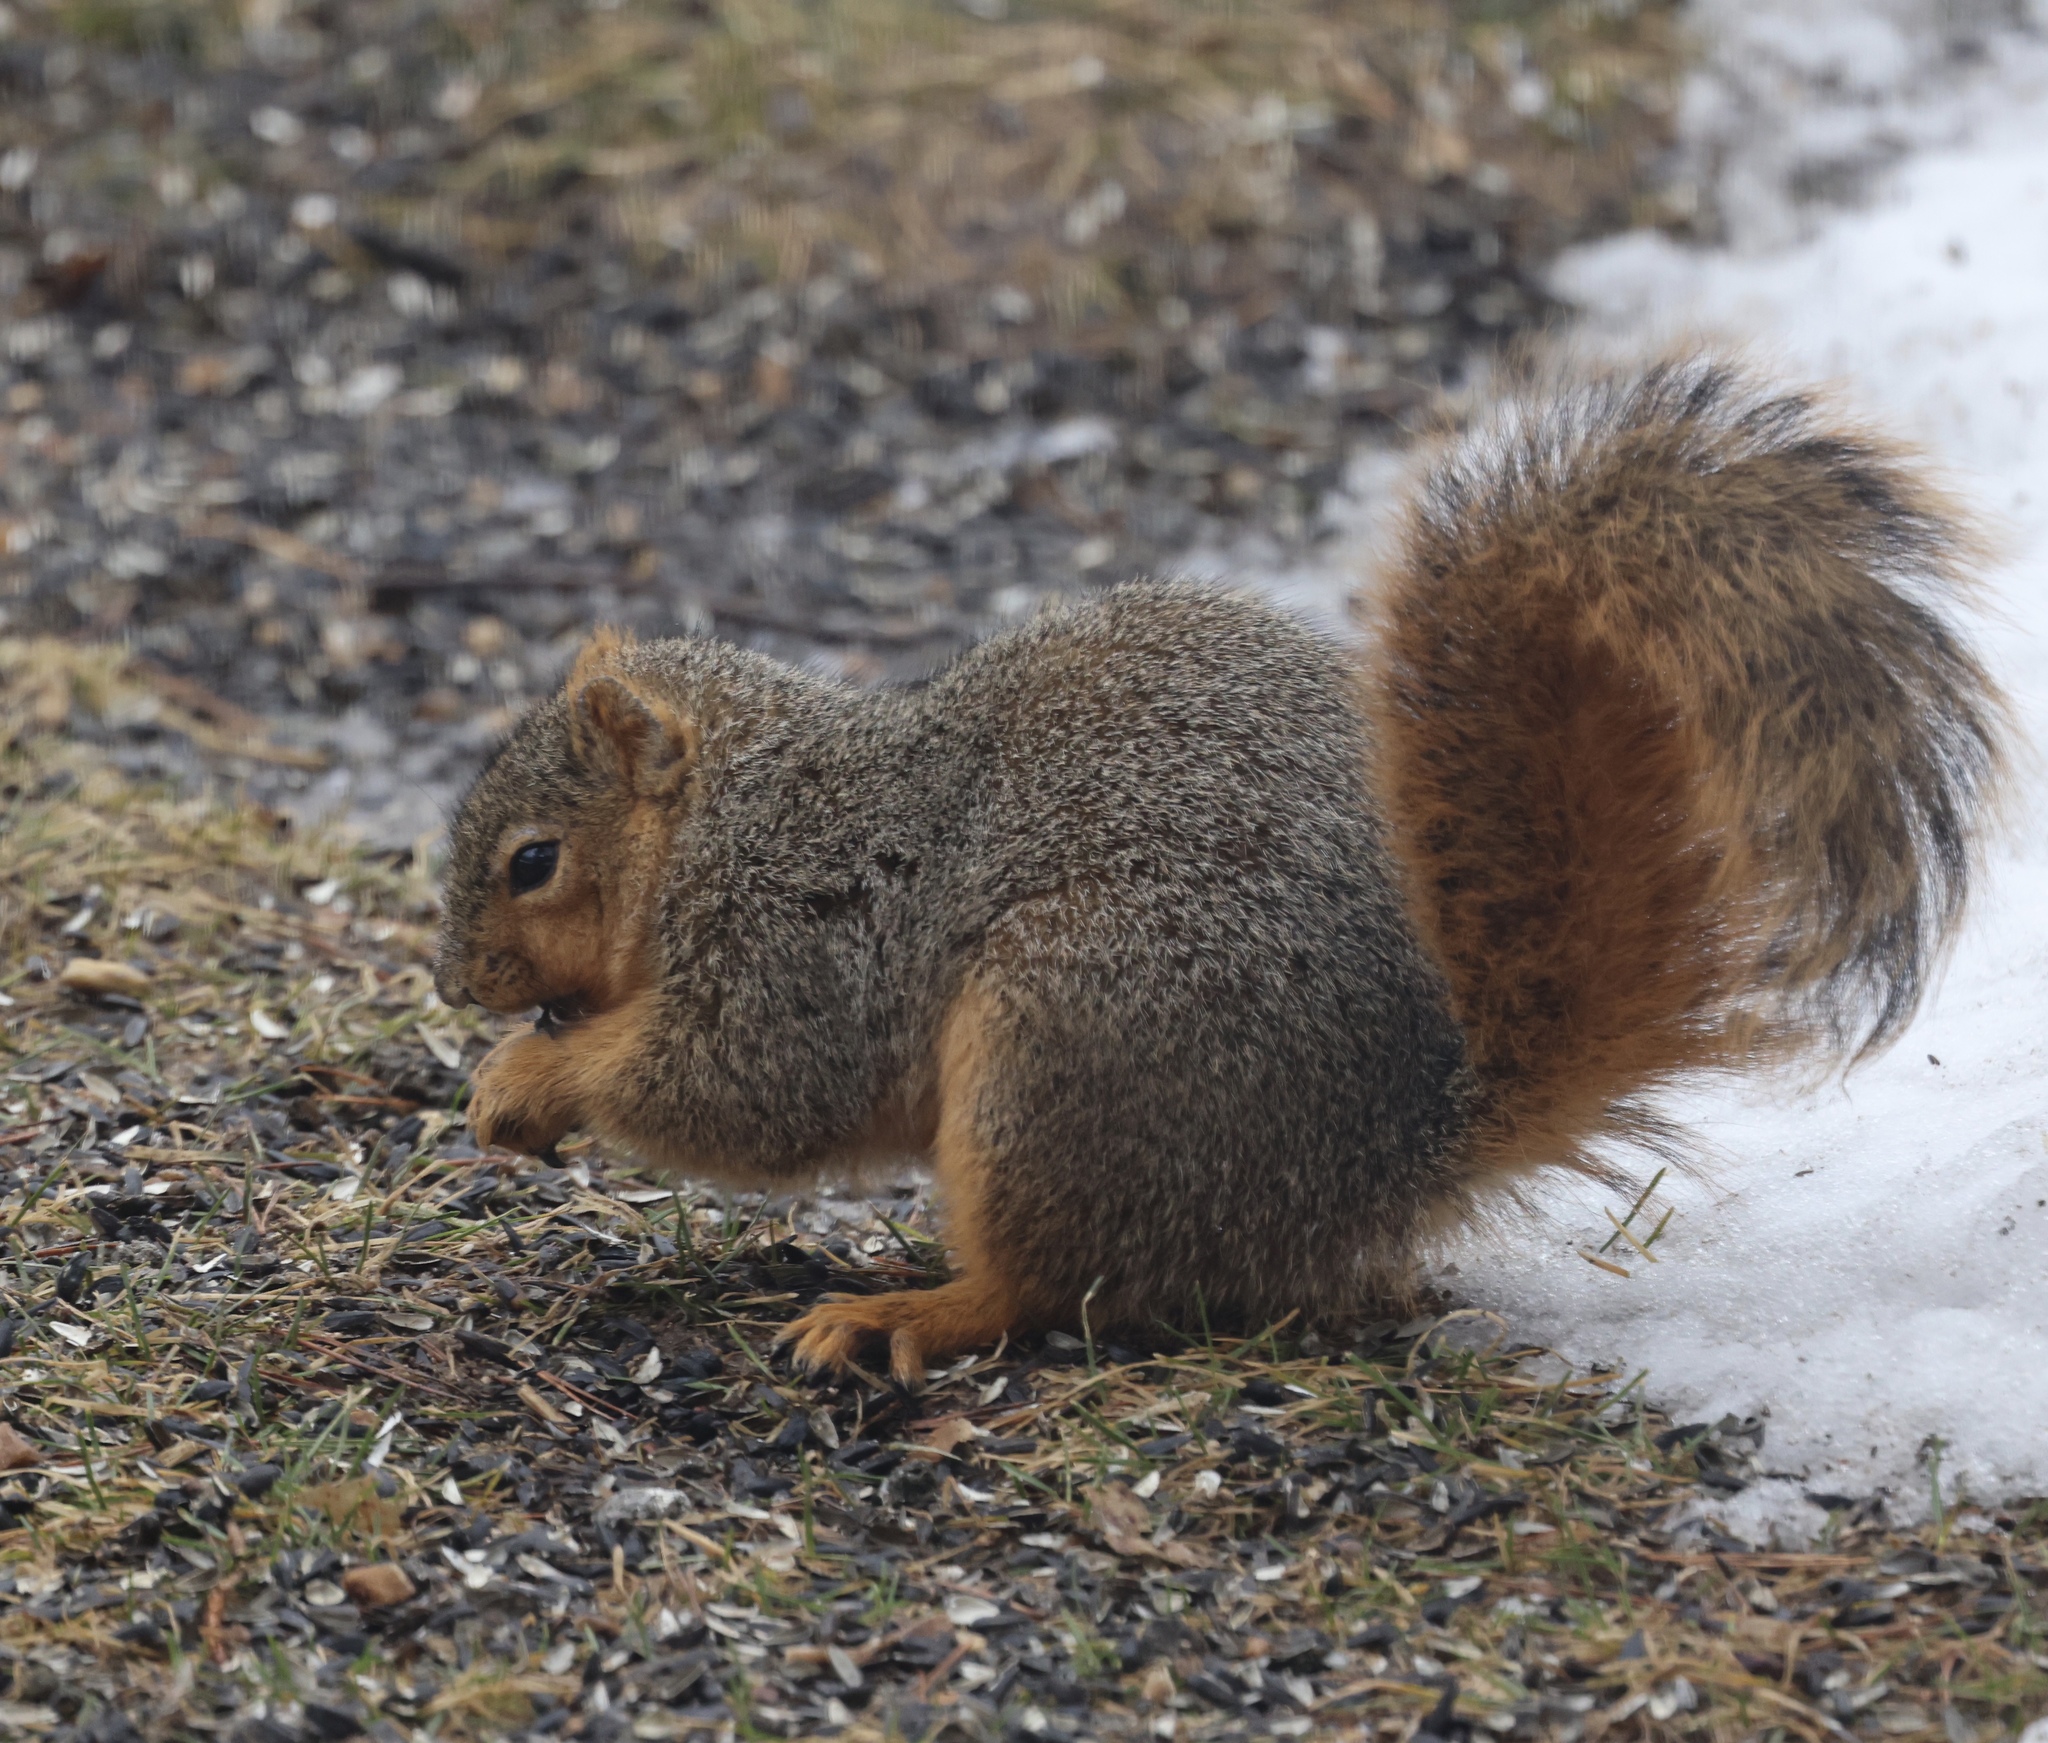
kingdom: Animalia
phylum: Chordata
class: Mammalia
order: Rodentia
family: Sciuridae
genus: Sciurus
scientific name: Sciurus niger
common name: Fox squirrel
